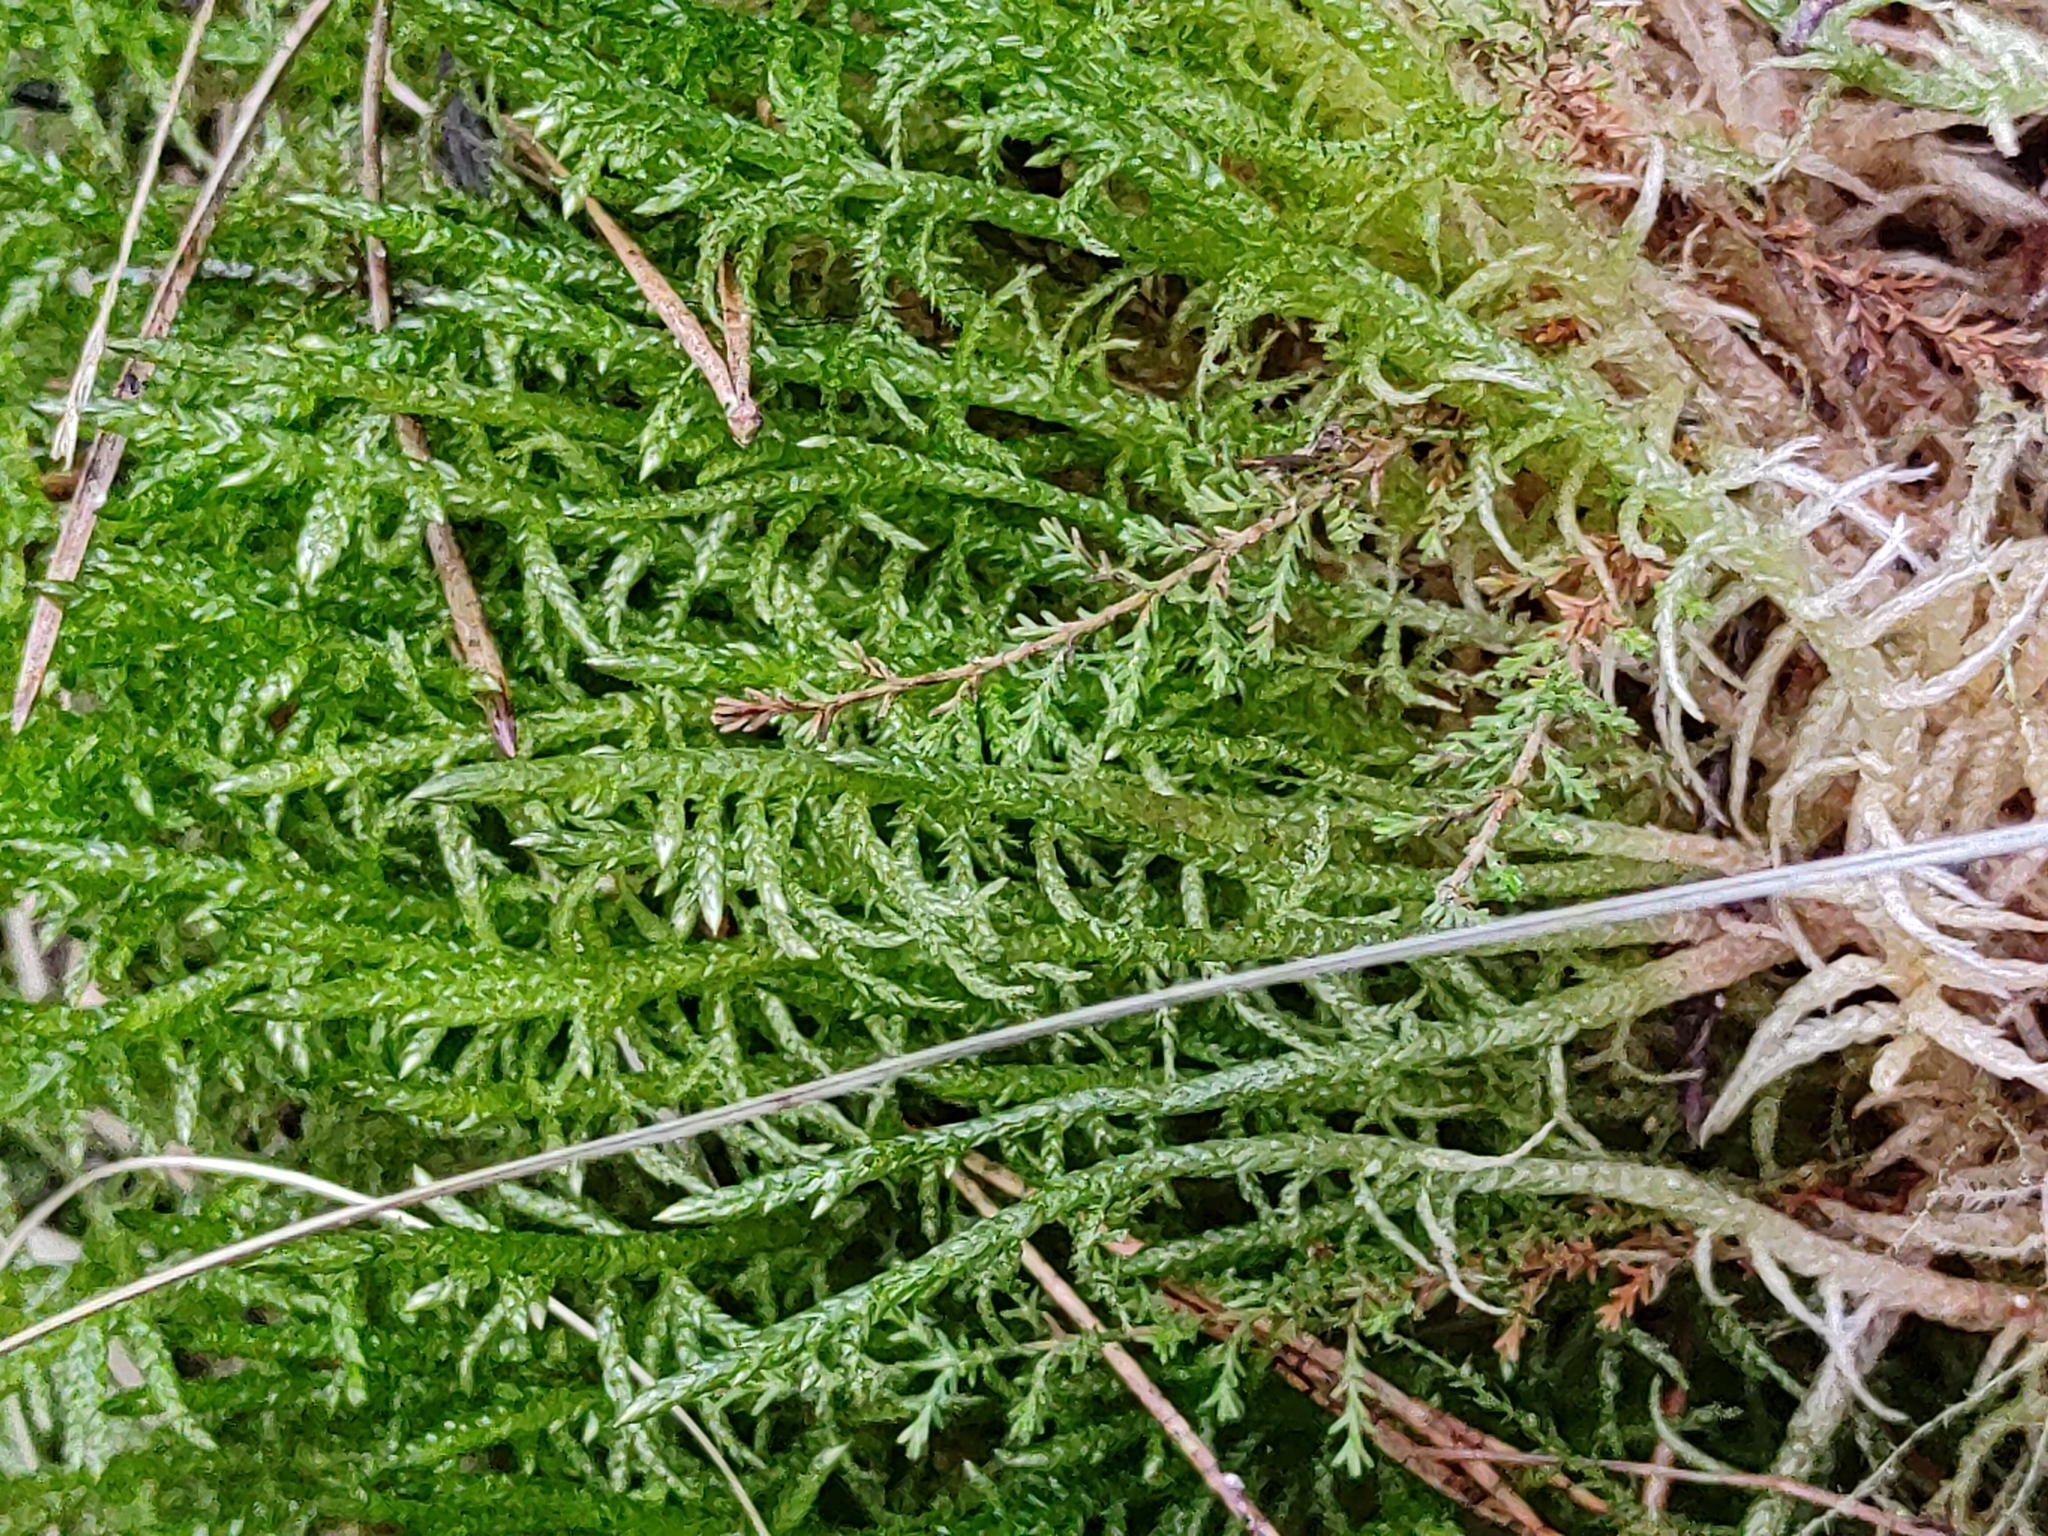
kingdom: Plantae
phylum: Bryophyta
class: Bryopsida
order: Hypnales
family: Brachytheciaceae
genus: Pseudoscleropodium
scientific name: Pseudoscleropodium purum
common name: Neat feather-moss
